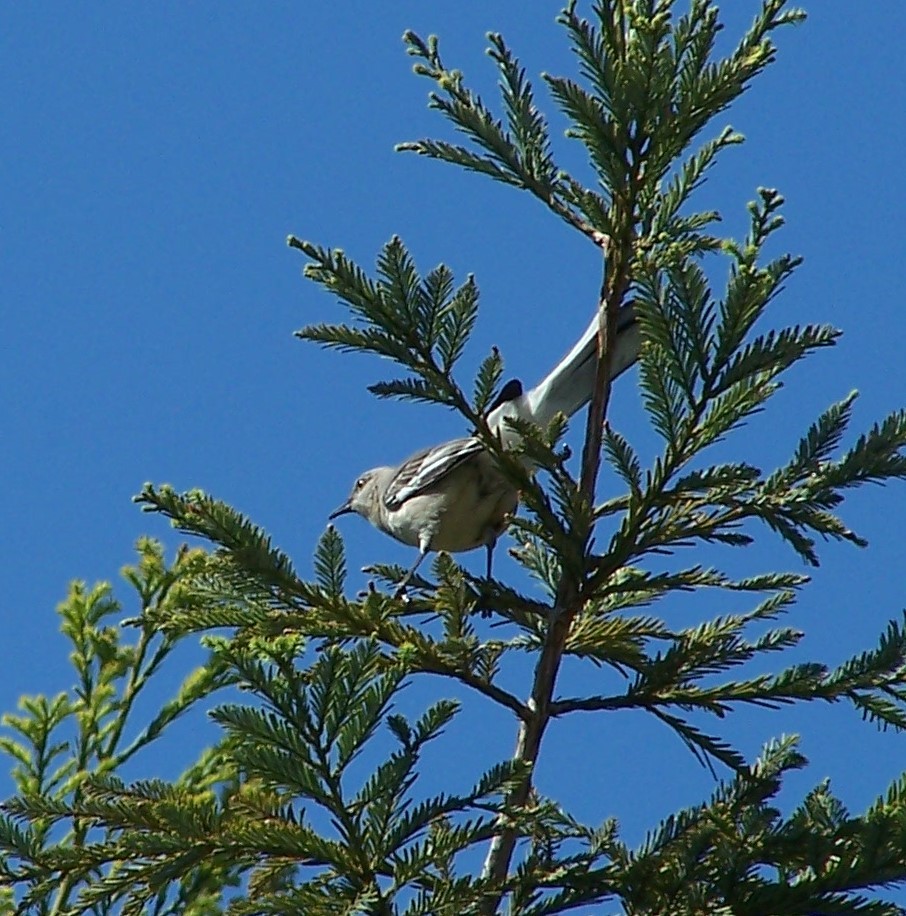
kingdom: Animalia
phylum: Chordata
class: Aves
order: Passeriformes
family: Mimidae
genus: Mimus
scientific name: Mimus polyglottos
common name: Northern mockingbird
